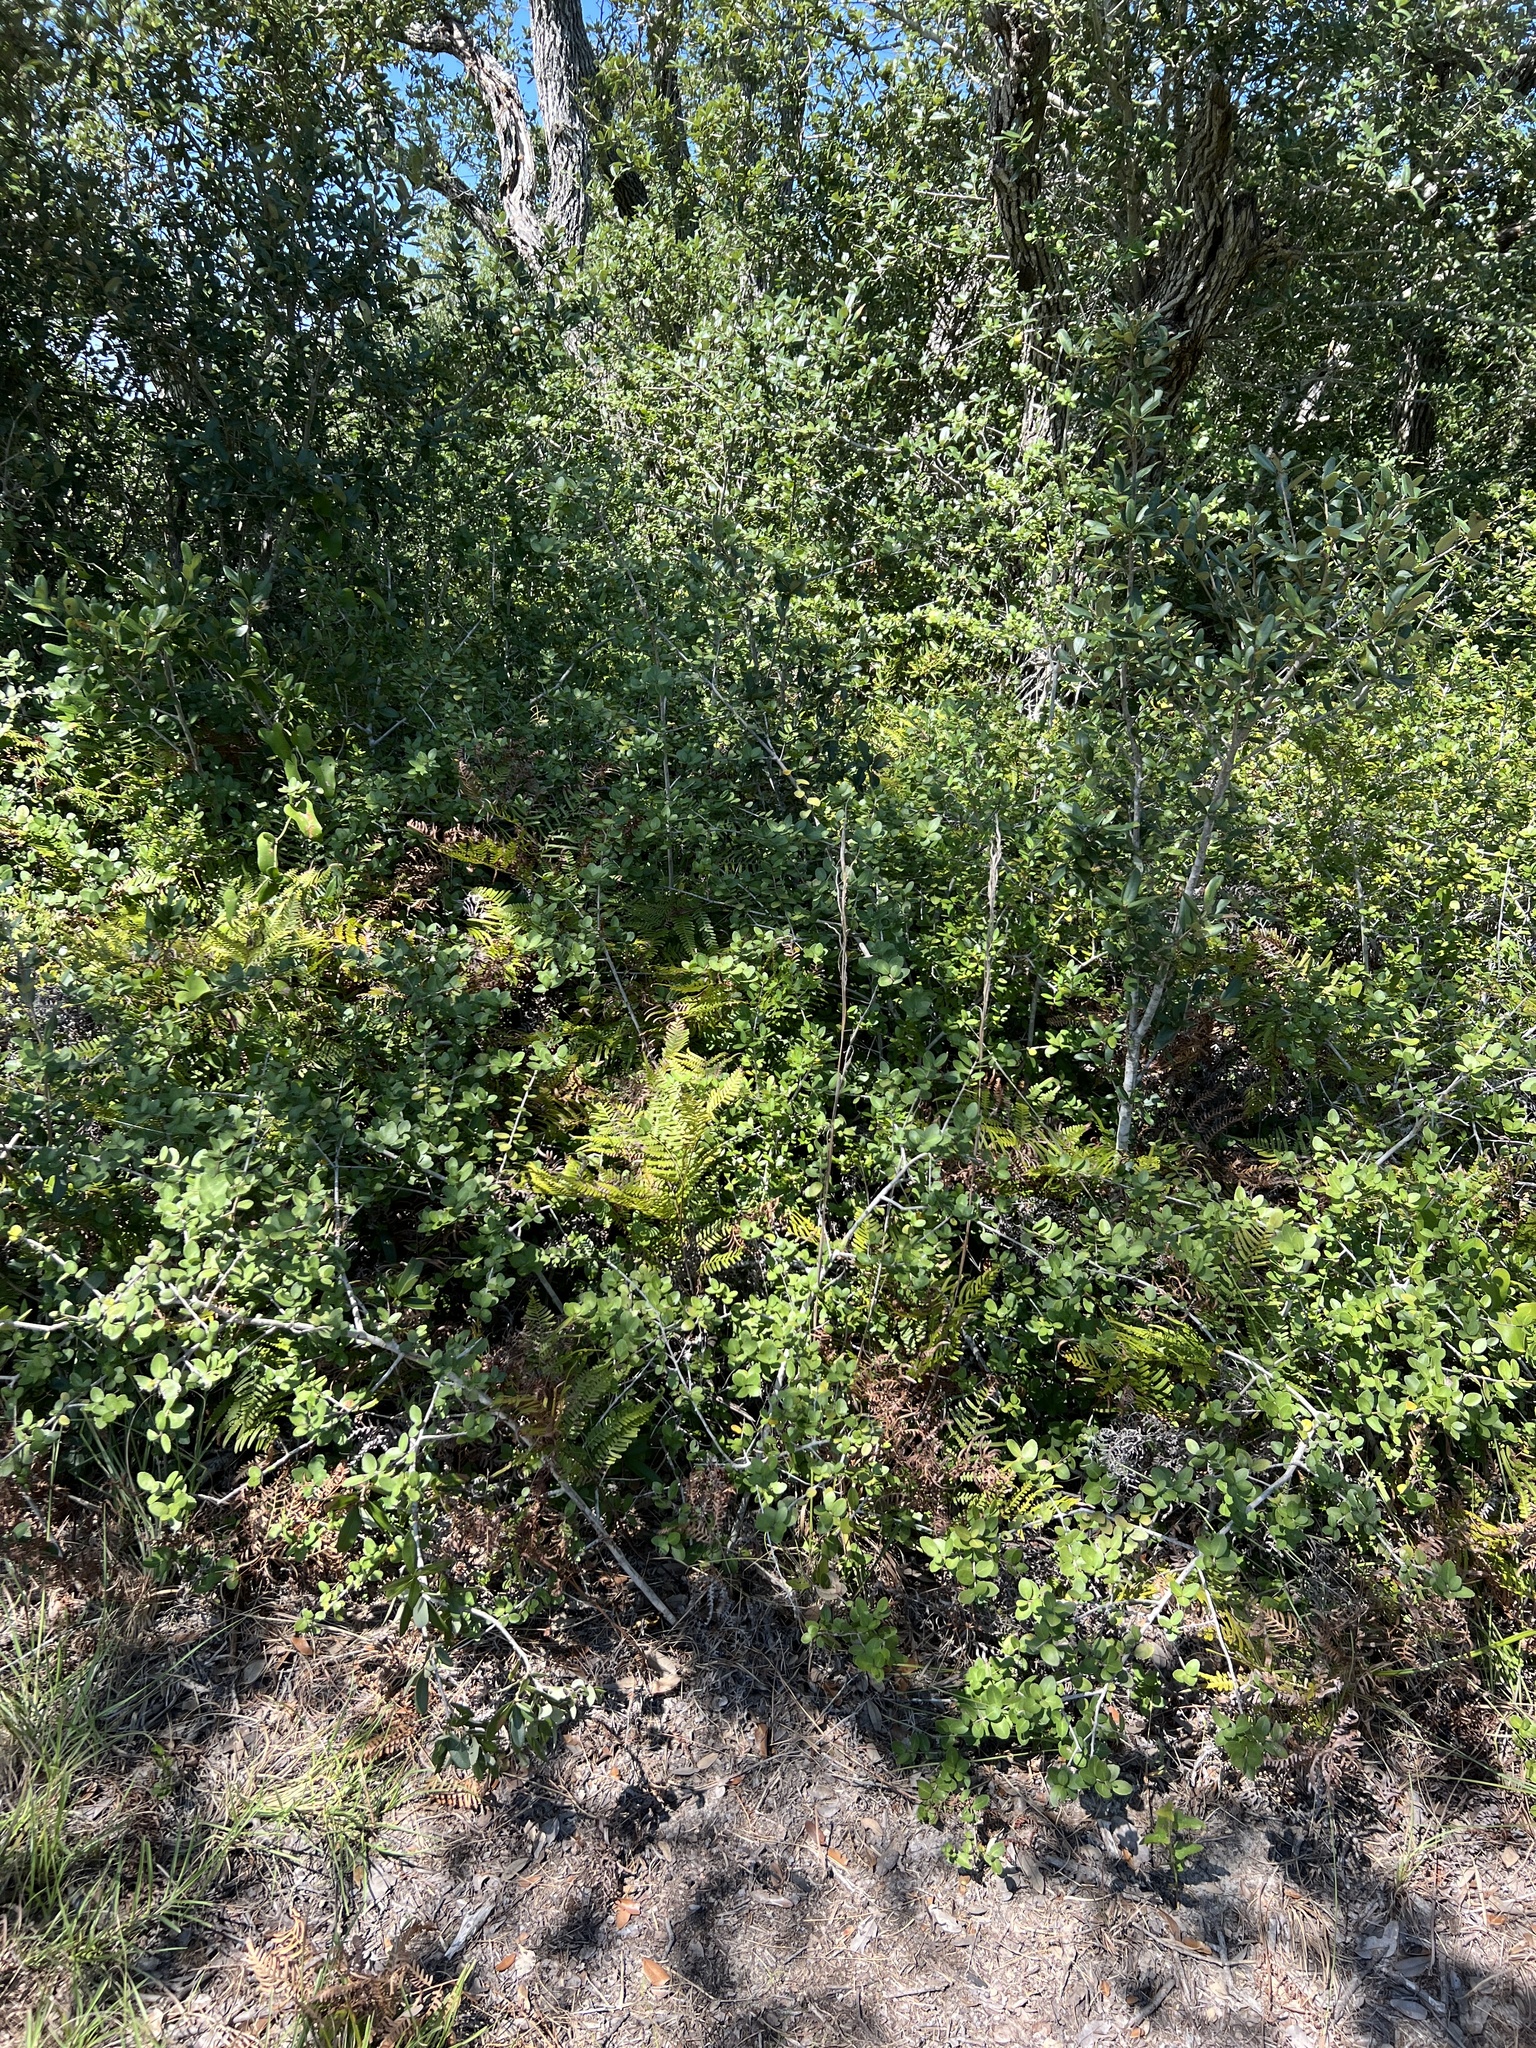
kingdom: Plantae
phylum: Tracheophyta
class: Polypodiopsida
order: Polypodiales
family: Dennstaedtiaceae
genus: Pteridium
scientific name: Pteridium aquilinum
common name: Bracken
